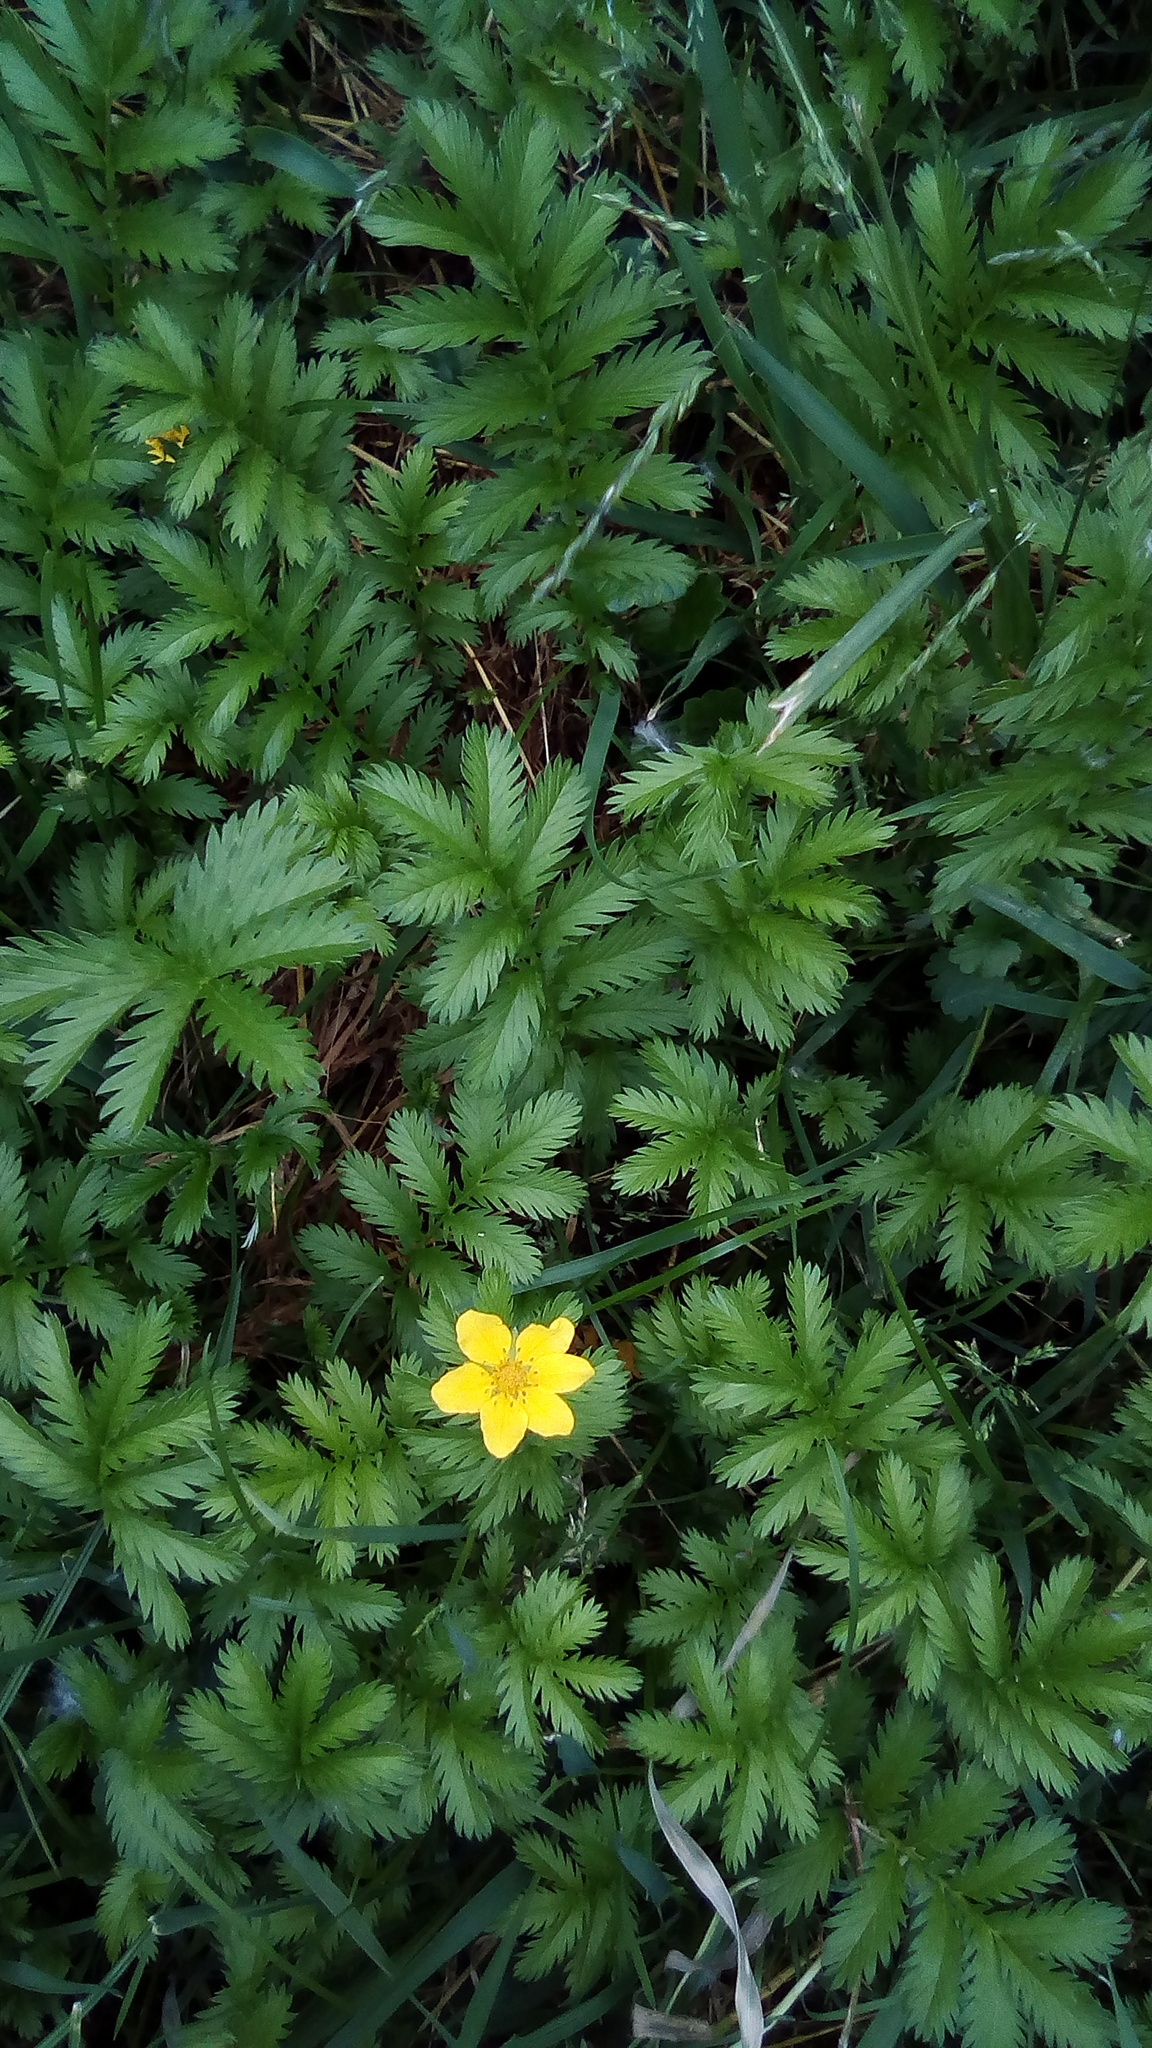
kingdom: Plantae
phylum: Tracheophyta
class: Magnoliopsida
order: Rosales
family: Rosaceae
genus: Argentina
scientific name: Argentina anserina
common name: Common silverweed
